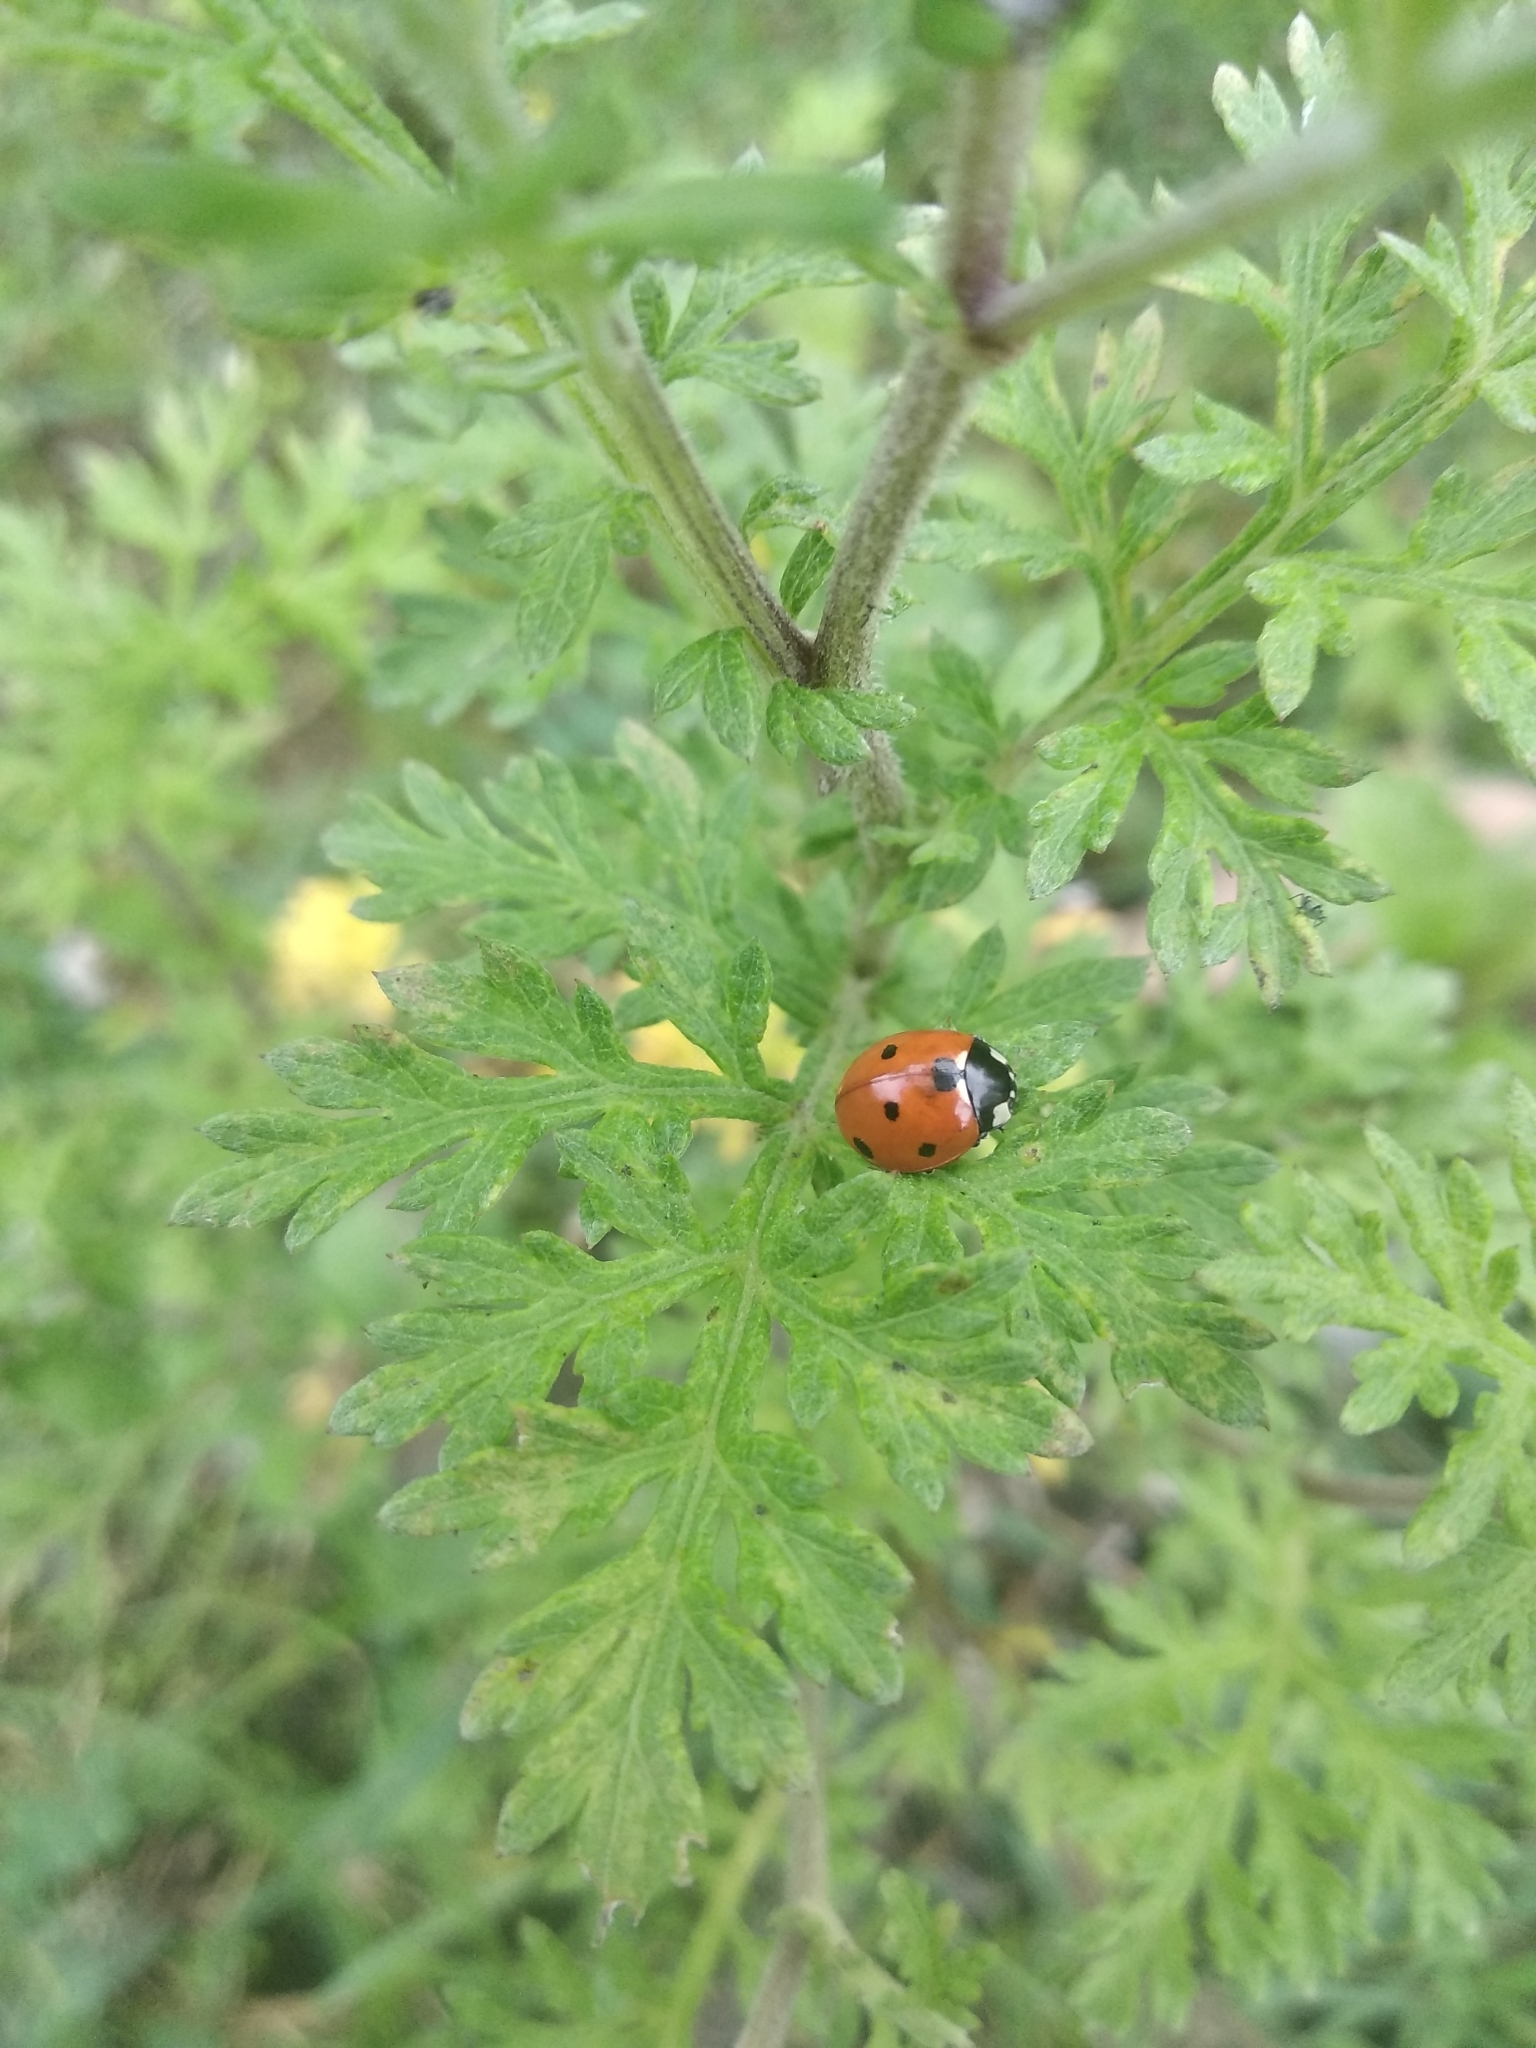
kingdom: Animalia
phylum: Arthropoda
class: Insecta
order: Coleoptera
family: Coccinellidae
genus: Coccinella
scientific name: Coccinella septempunctata
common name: Sevenspotted lady beetle
